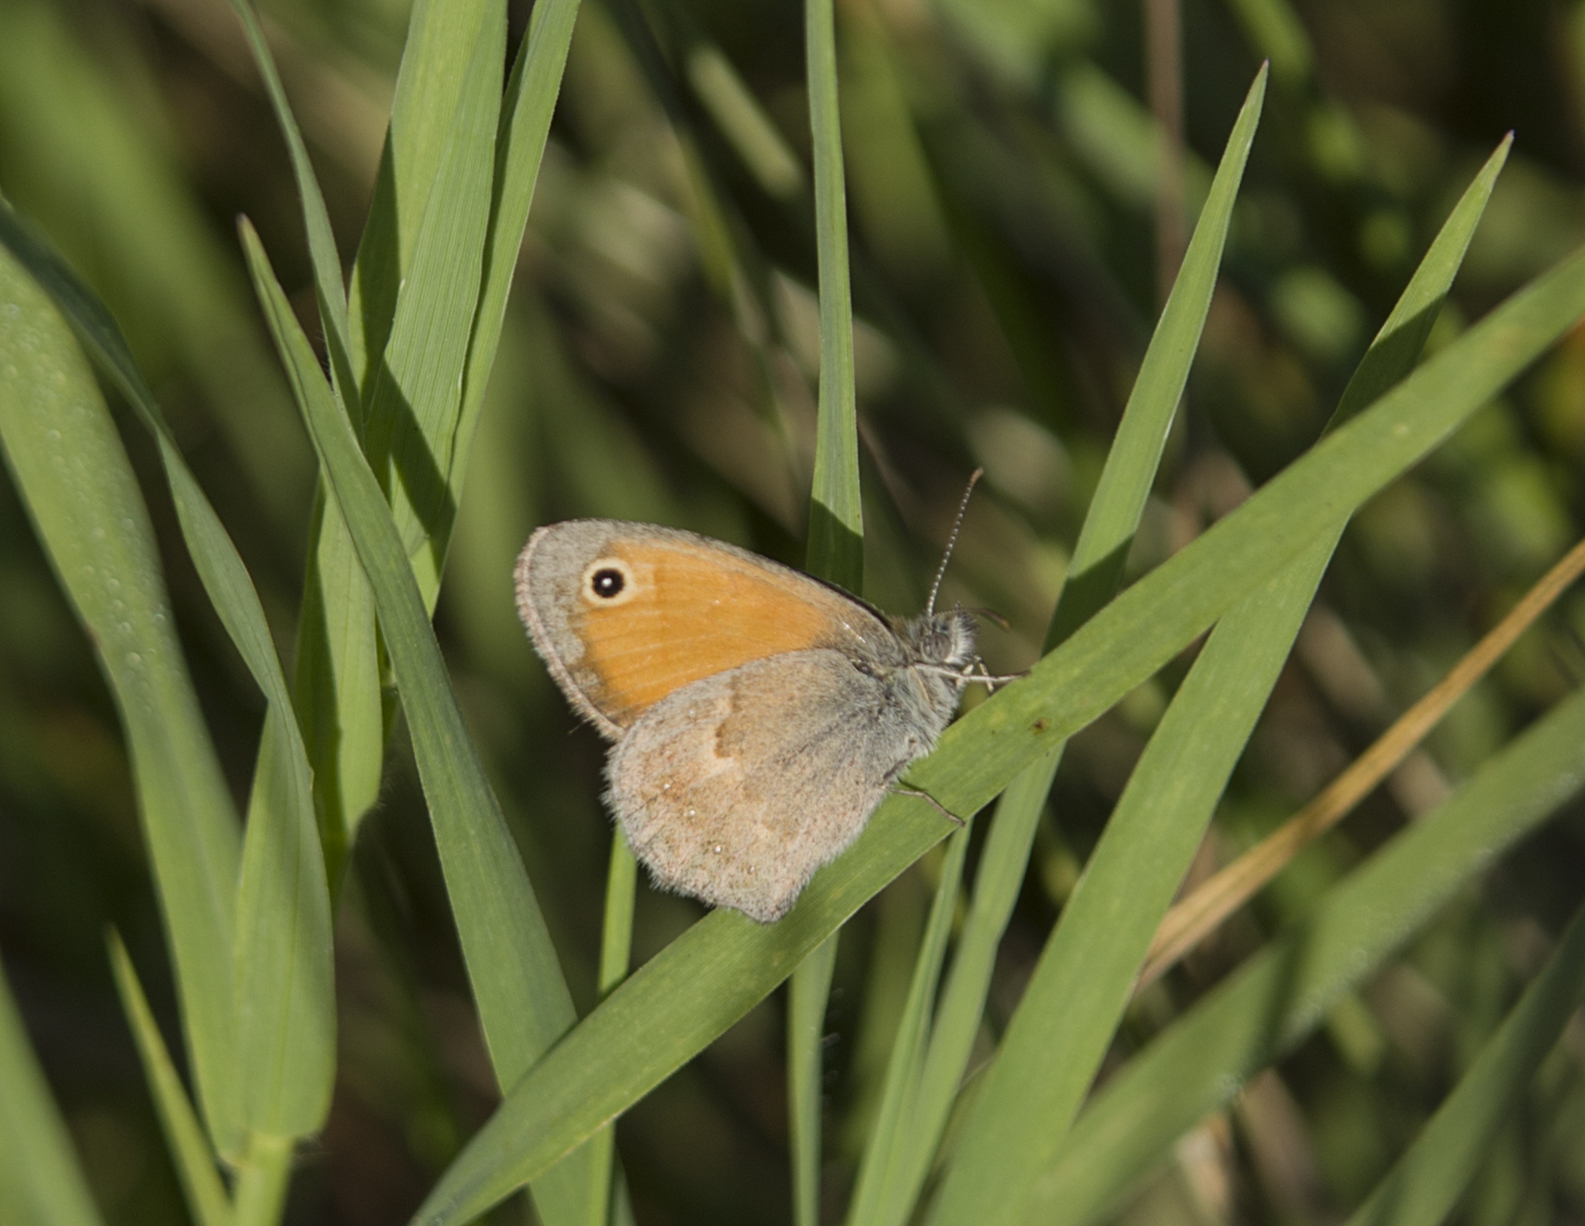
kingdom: Animalia
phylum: Arthropoda
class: Insecta
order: Lepidoptera
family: Nymphalidae
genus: Coenonympha
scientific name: Coenonympha pamphilus
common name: Small heath
